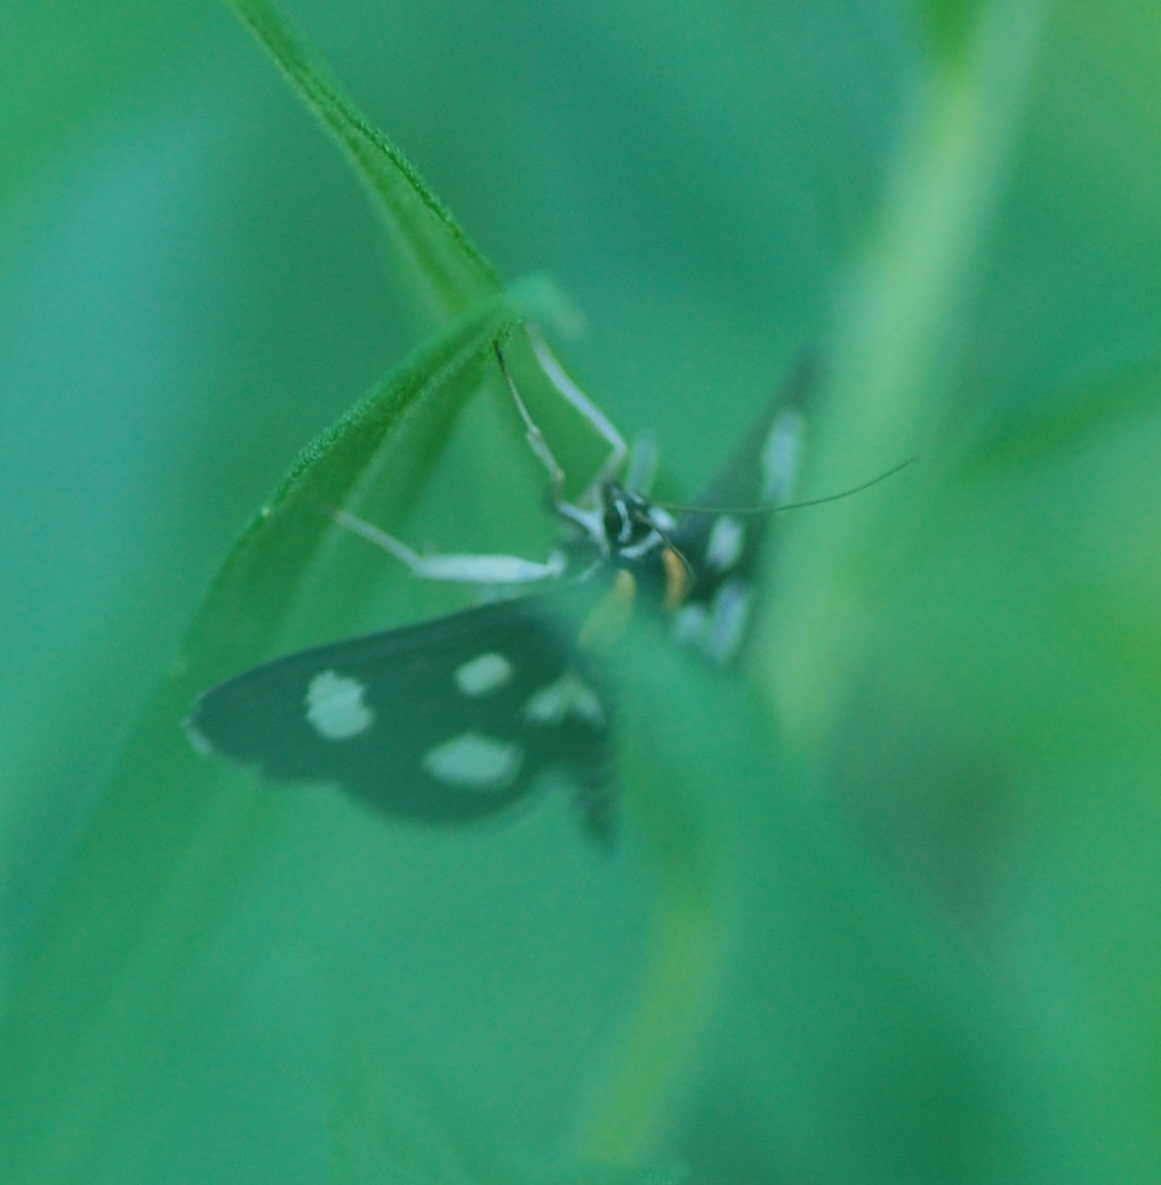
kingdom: Animalia
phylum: Arthropoda
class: Insecta
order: Lepidoptera
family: Crambidae
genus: Anania
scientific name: Anania funebris
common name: White-spotted sable moth
